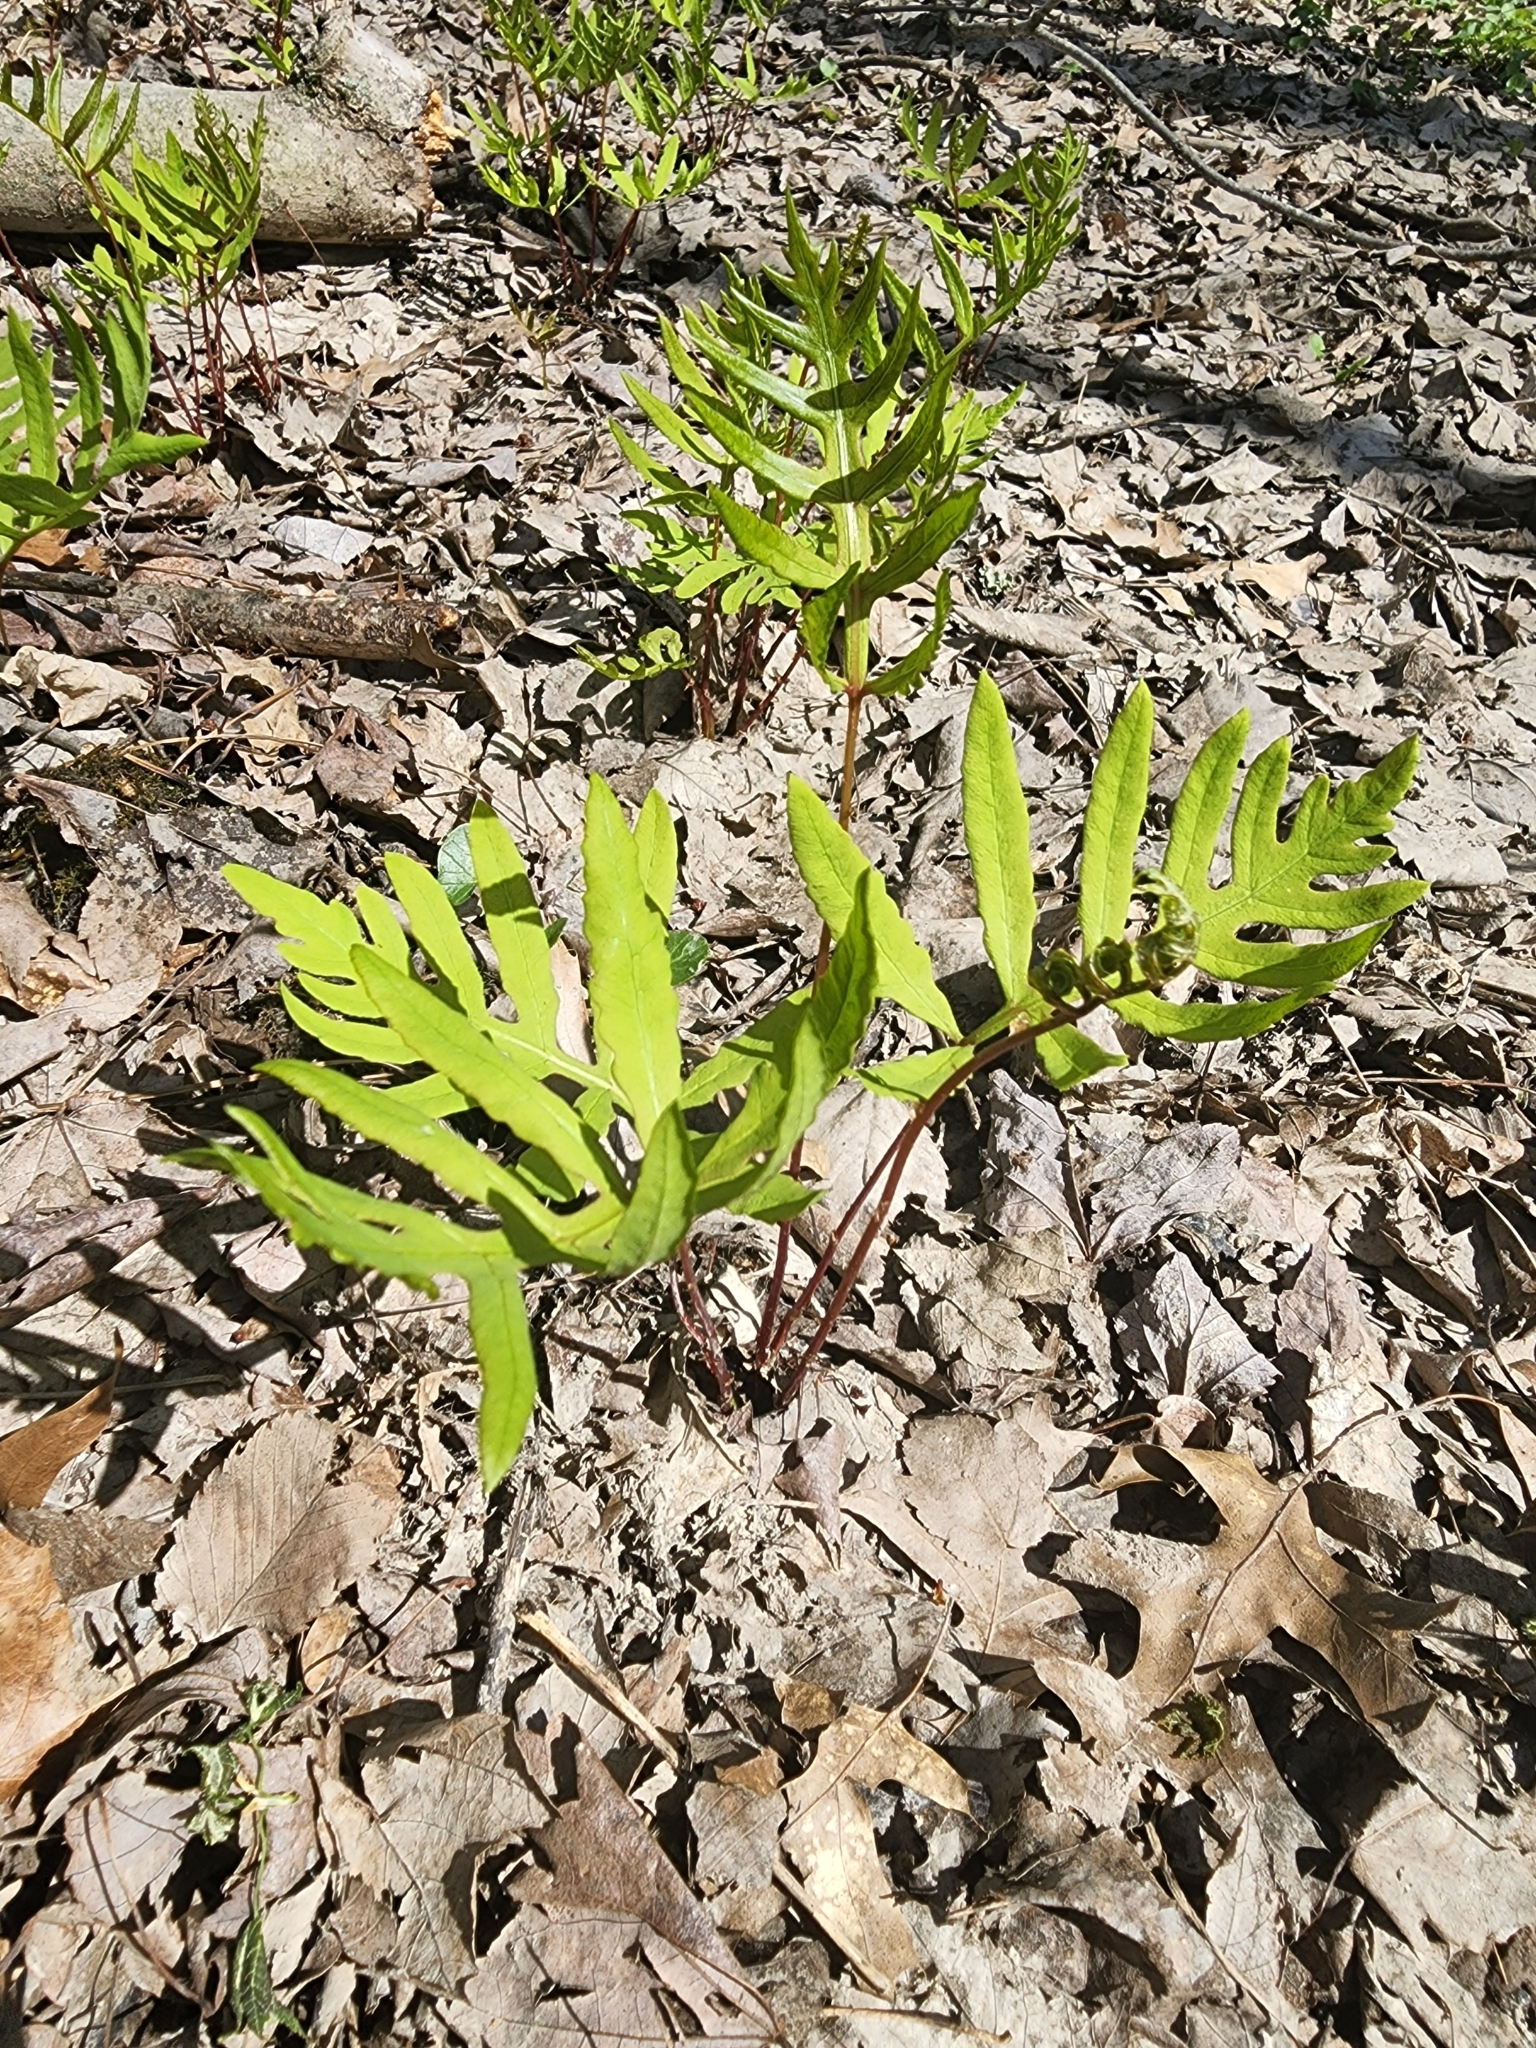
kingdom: Plantae
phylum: Tracheophyta
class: Polypodiopsida
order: Polypodiales
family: Onocleaceae
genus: Onoclea
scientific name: Onoclea sensibilis
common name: Sensitive fern
